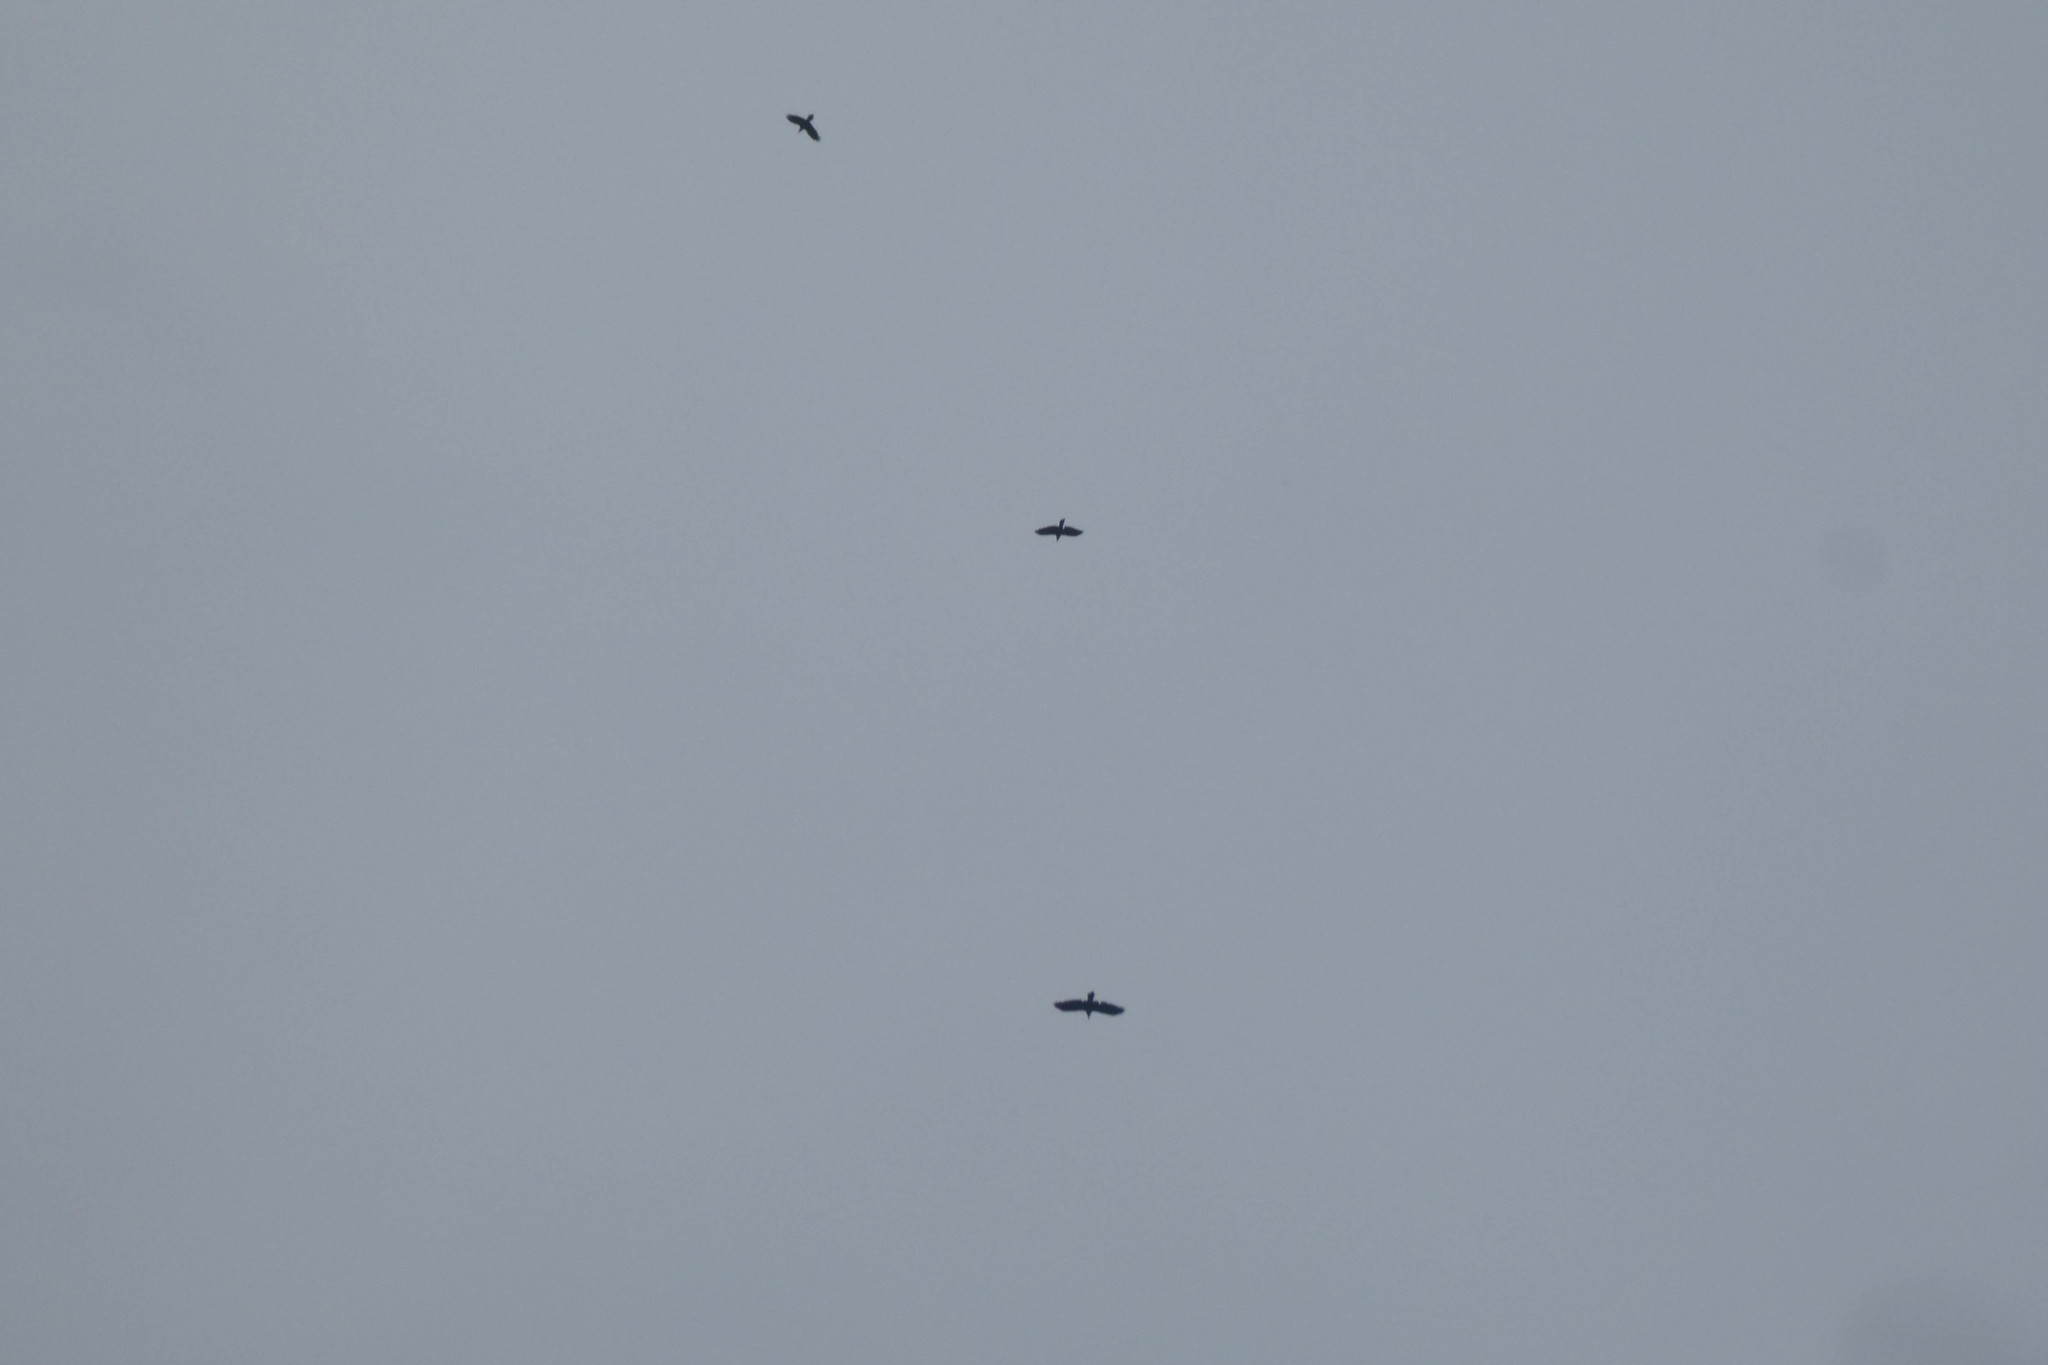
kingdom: Animalia
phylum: Chordata
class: Aves
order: Passeriformes
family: Corvidae
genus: Corvus
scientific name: Corvus brachyrhynchos
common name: American crow
